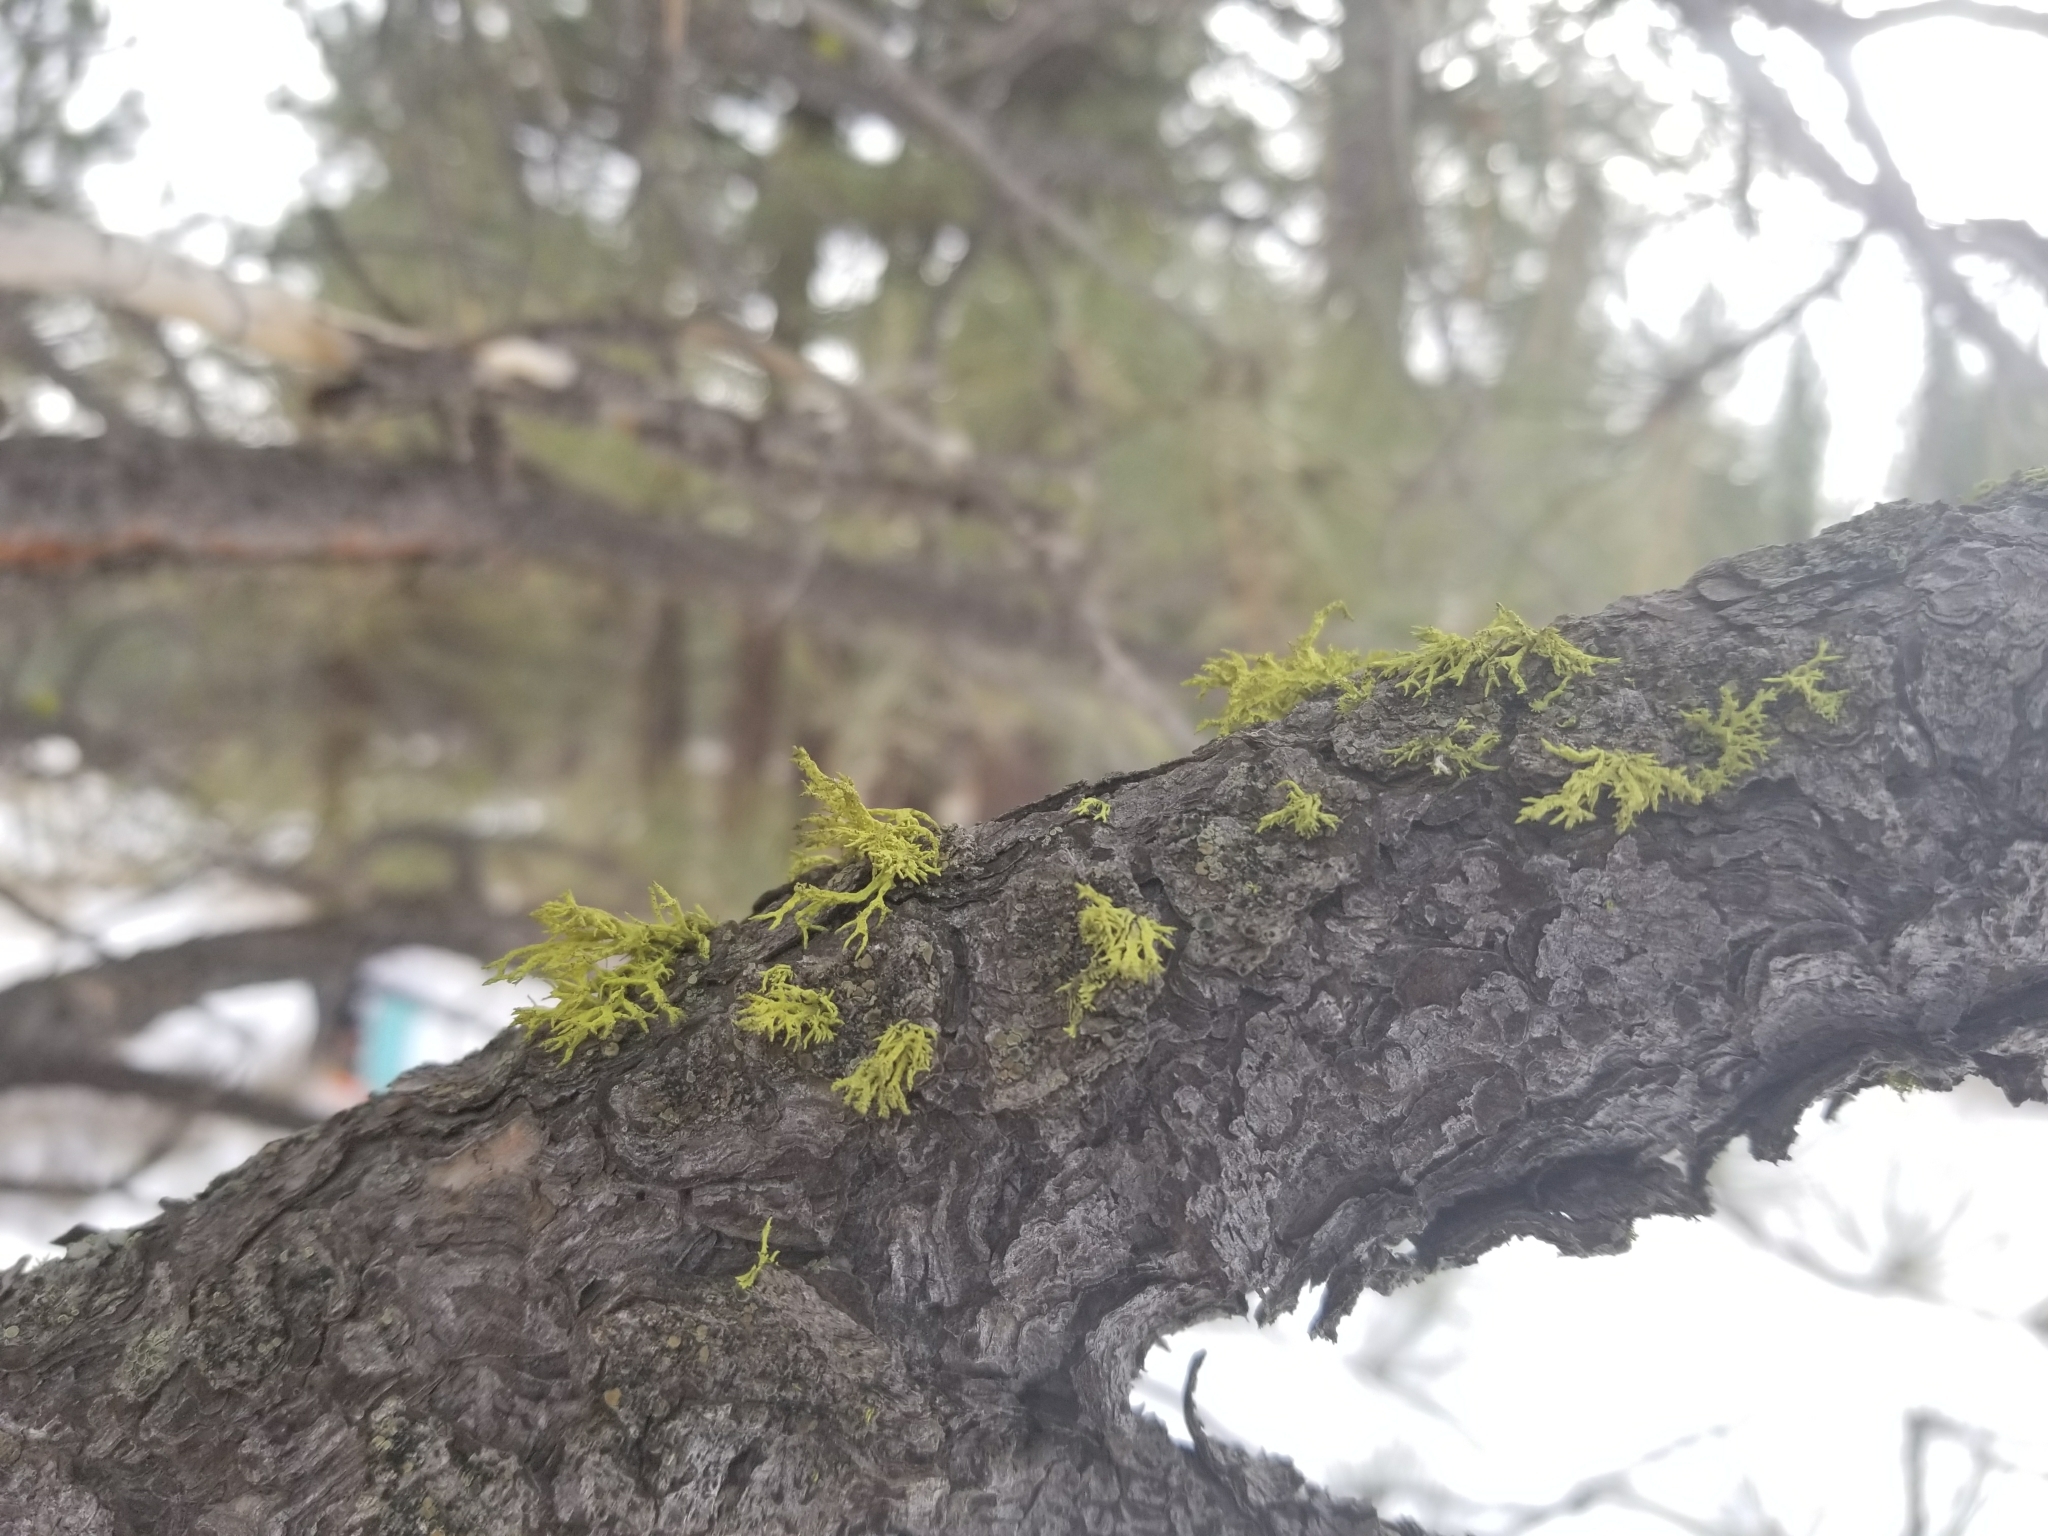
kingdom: Fungi
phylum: Ascomycota
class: Lecanoromycetes
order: Lecanorales
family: Parmeliaceae
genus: Letharia
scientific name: Letharia vulpina
